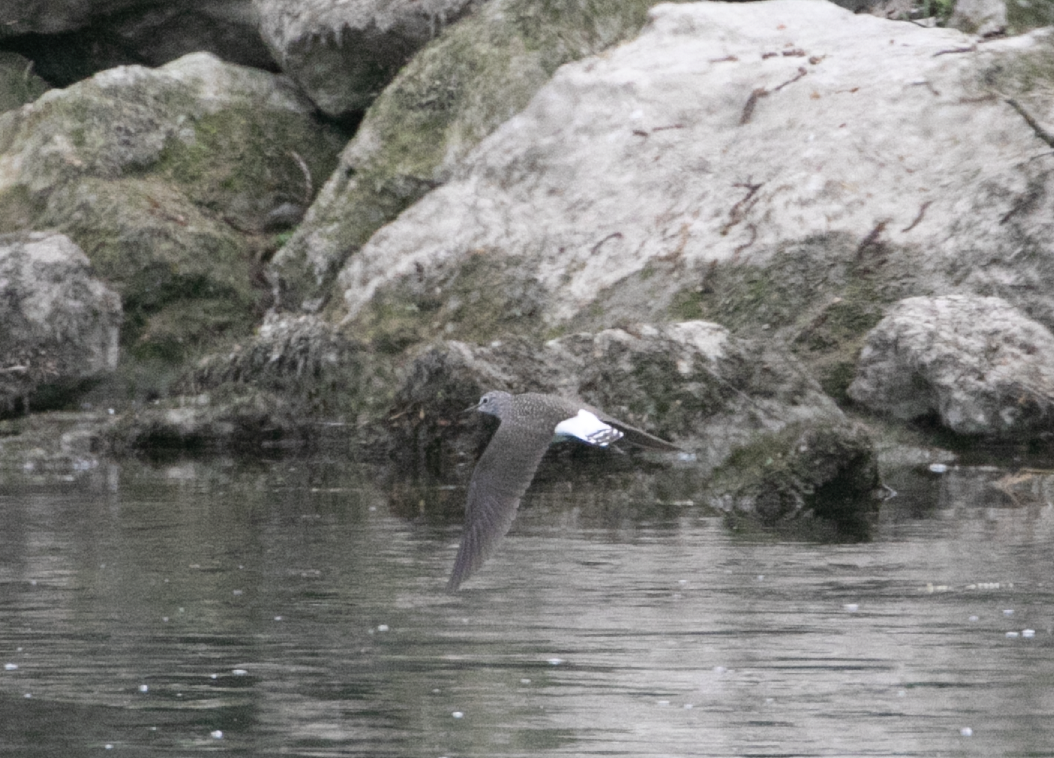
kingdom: Animalia
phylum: Chordata
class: Aves
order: Charadriiformes
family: Scolopacidae
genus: Tringa
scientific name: Tringa ochropus
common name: Green sandpiper
